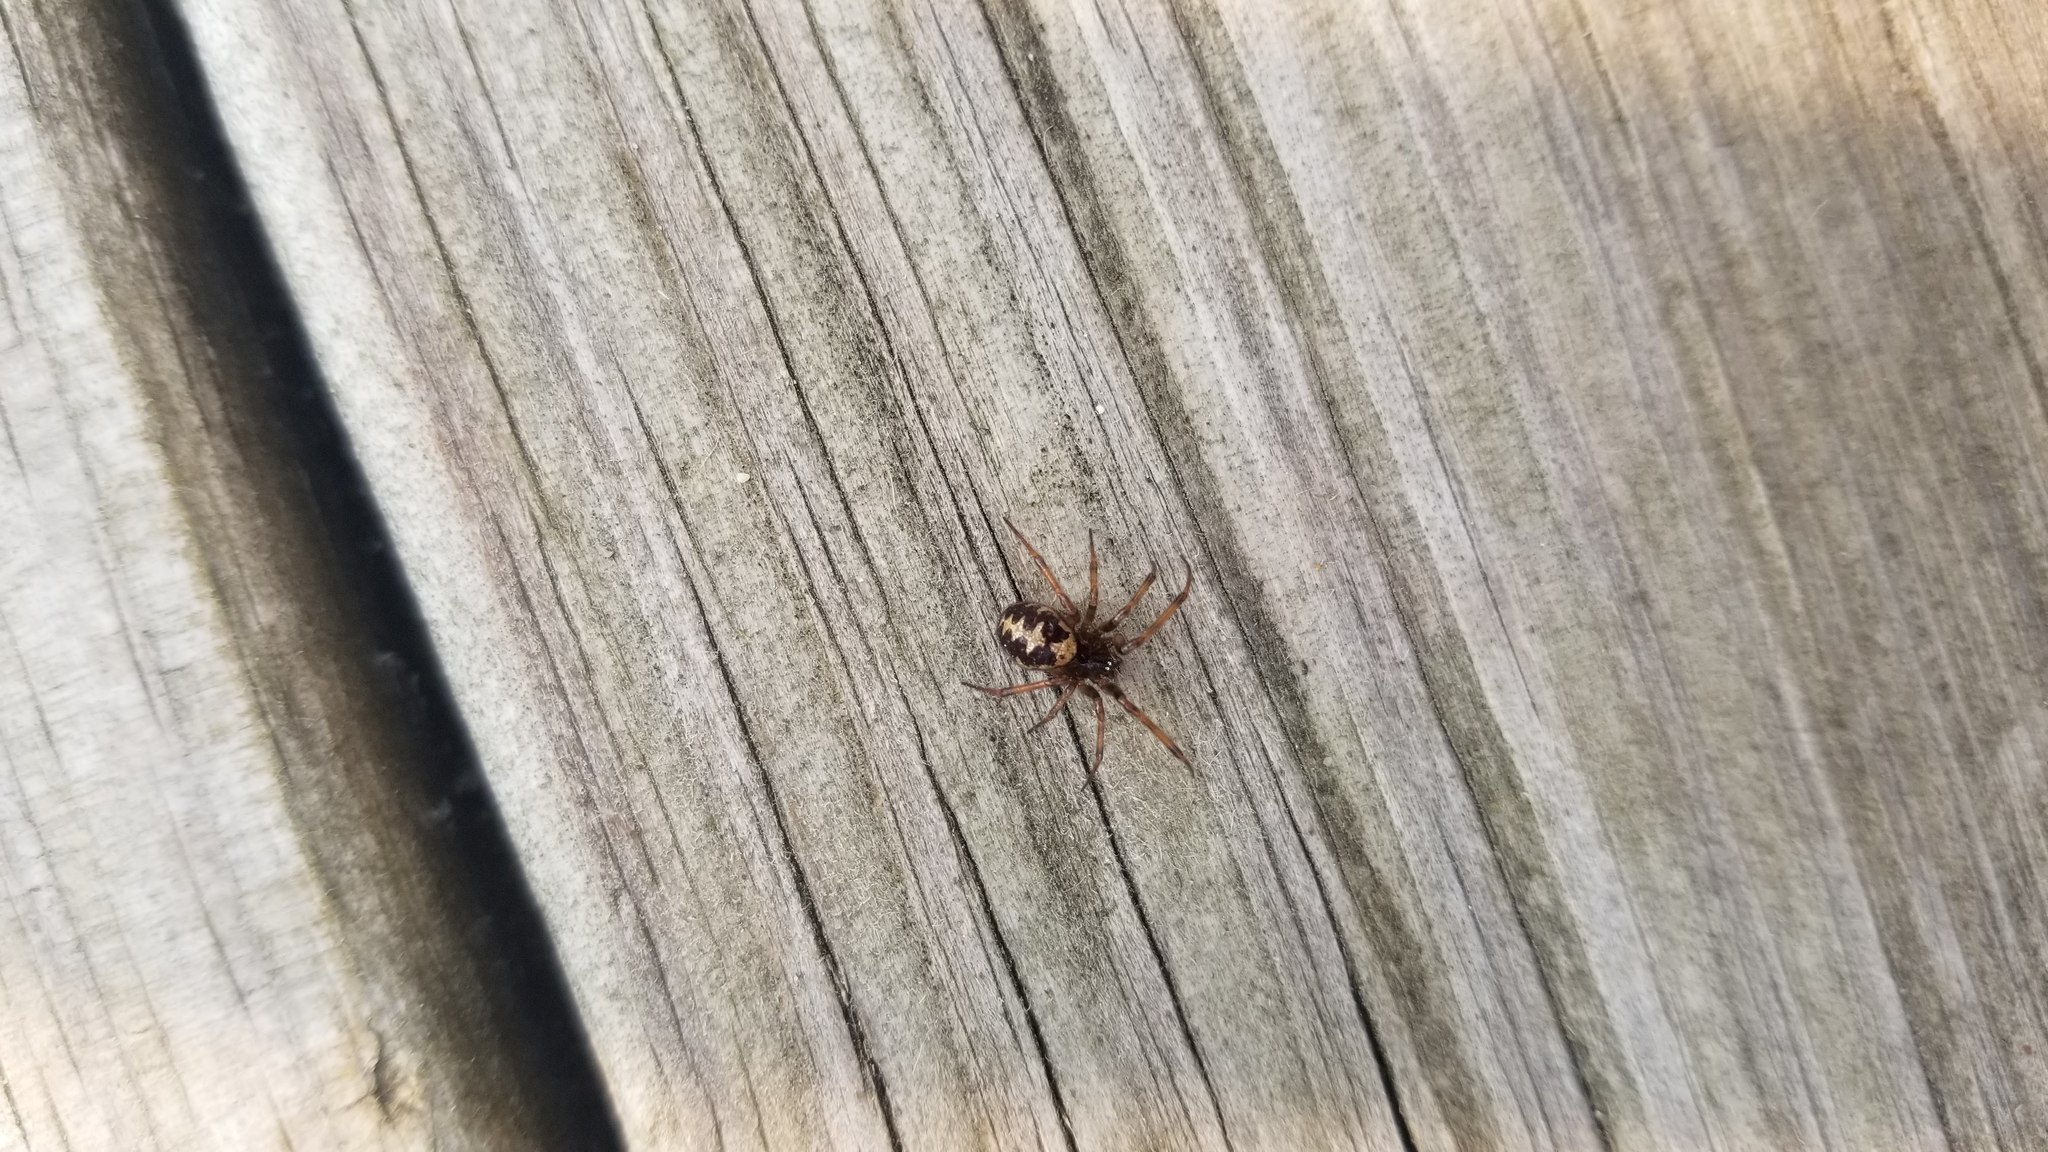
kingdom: Animalia
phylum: Arthropoda
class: Arachnida
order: Araneae
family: Theridiidae
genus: Steatoda
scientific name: Steatoda triangulosa
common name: Triangulate bud spider
